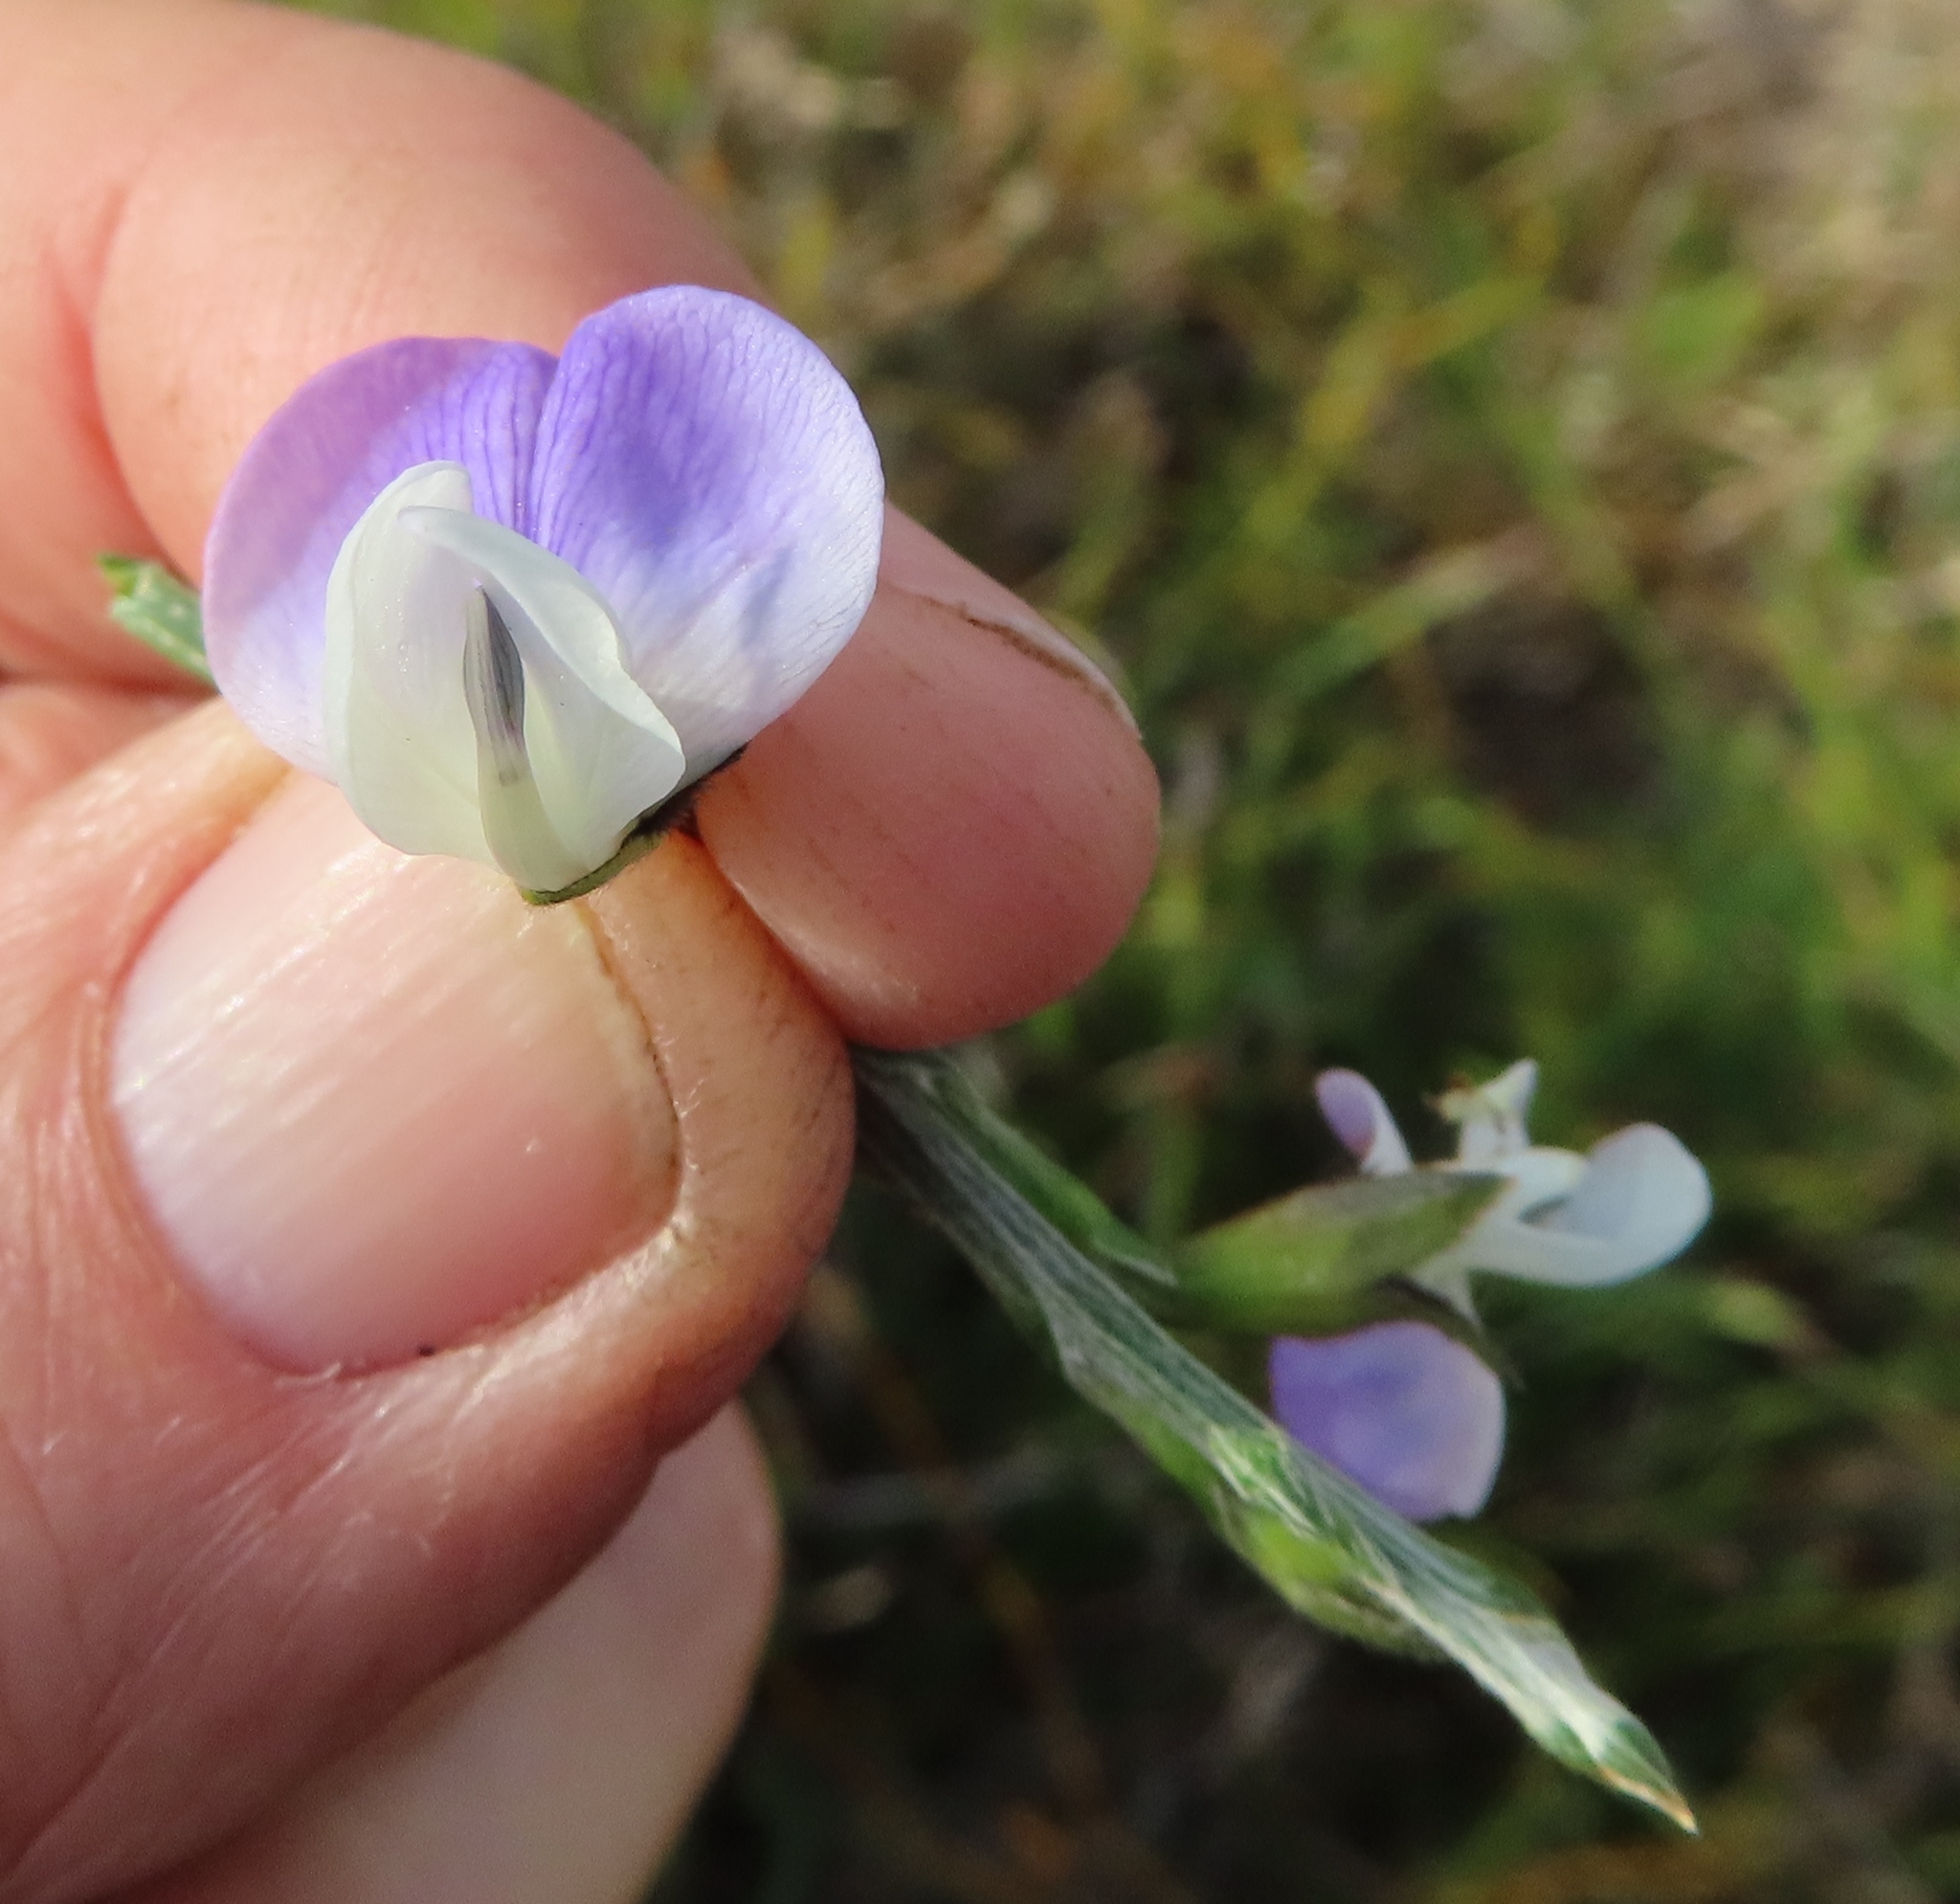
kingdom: Plantae
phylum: Tracheophyta
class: Magnoliopsida
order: Fabales
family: Fabaceae
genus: Psoralea
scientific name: Psoralea pullata
